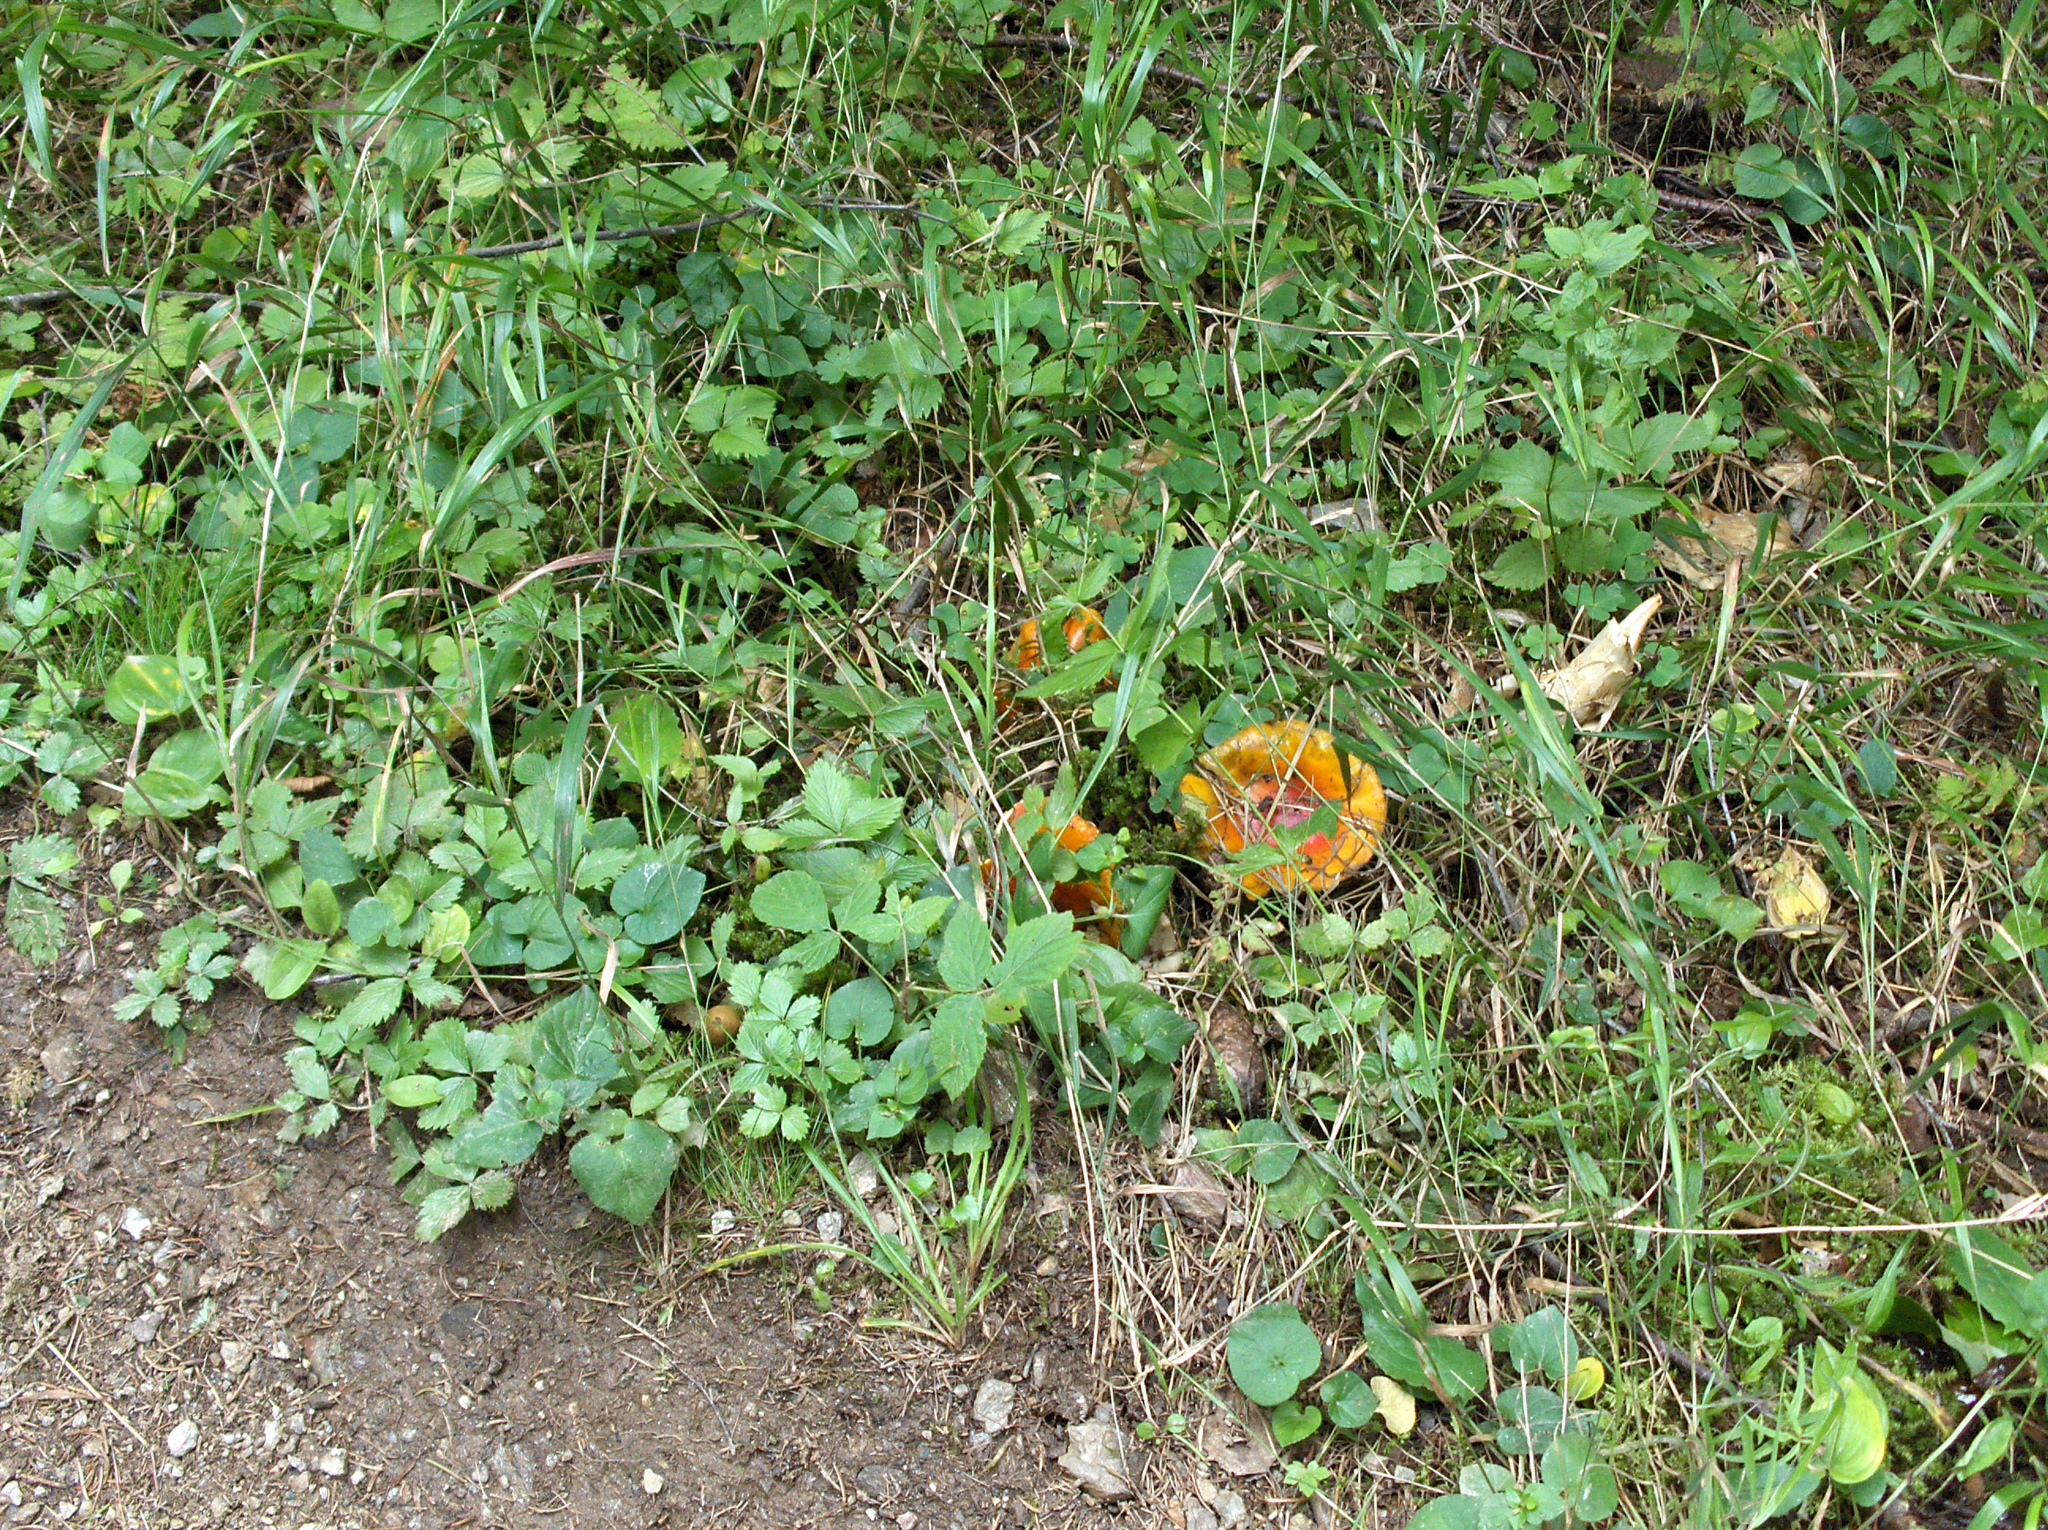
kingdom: Fungi
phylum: Basidiomycota
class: Agaricomycetes
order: Agaricales
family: Amanitaceae
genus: Amanita
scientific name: Amanita muscaria
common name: Fly agaric
